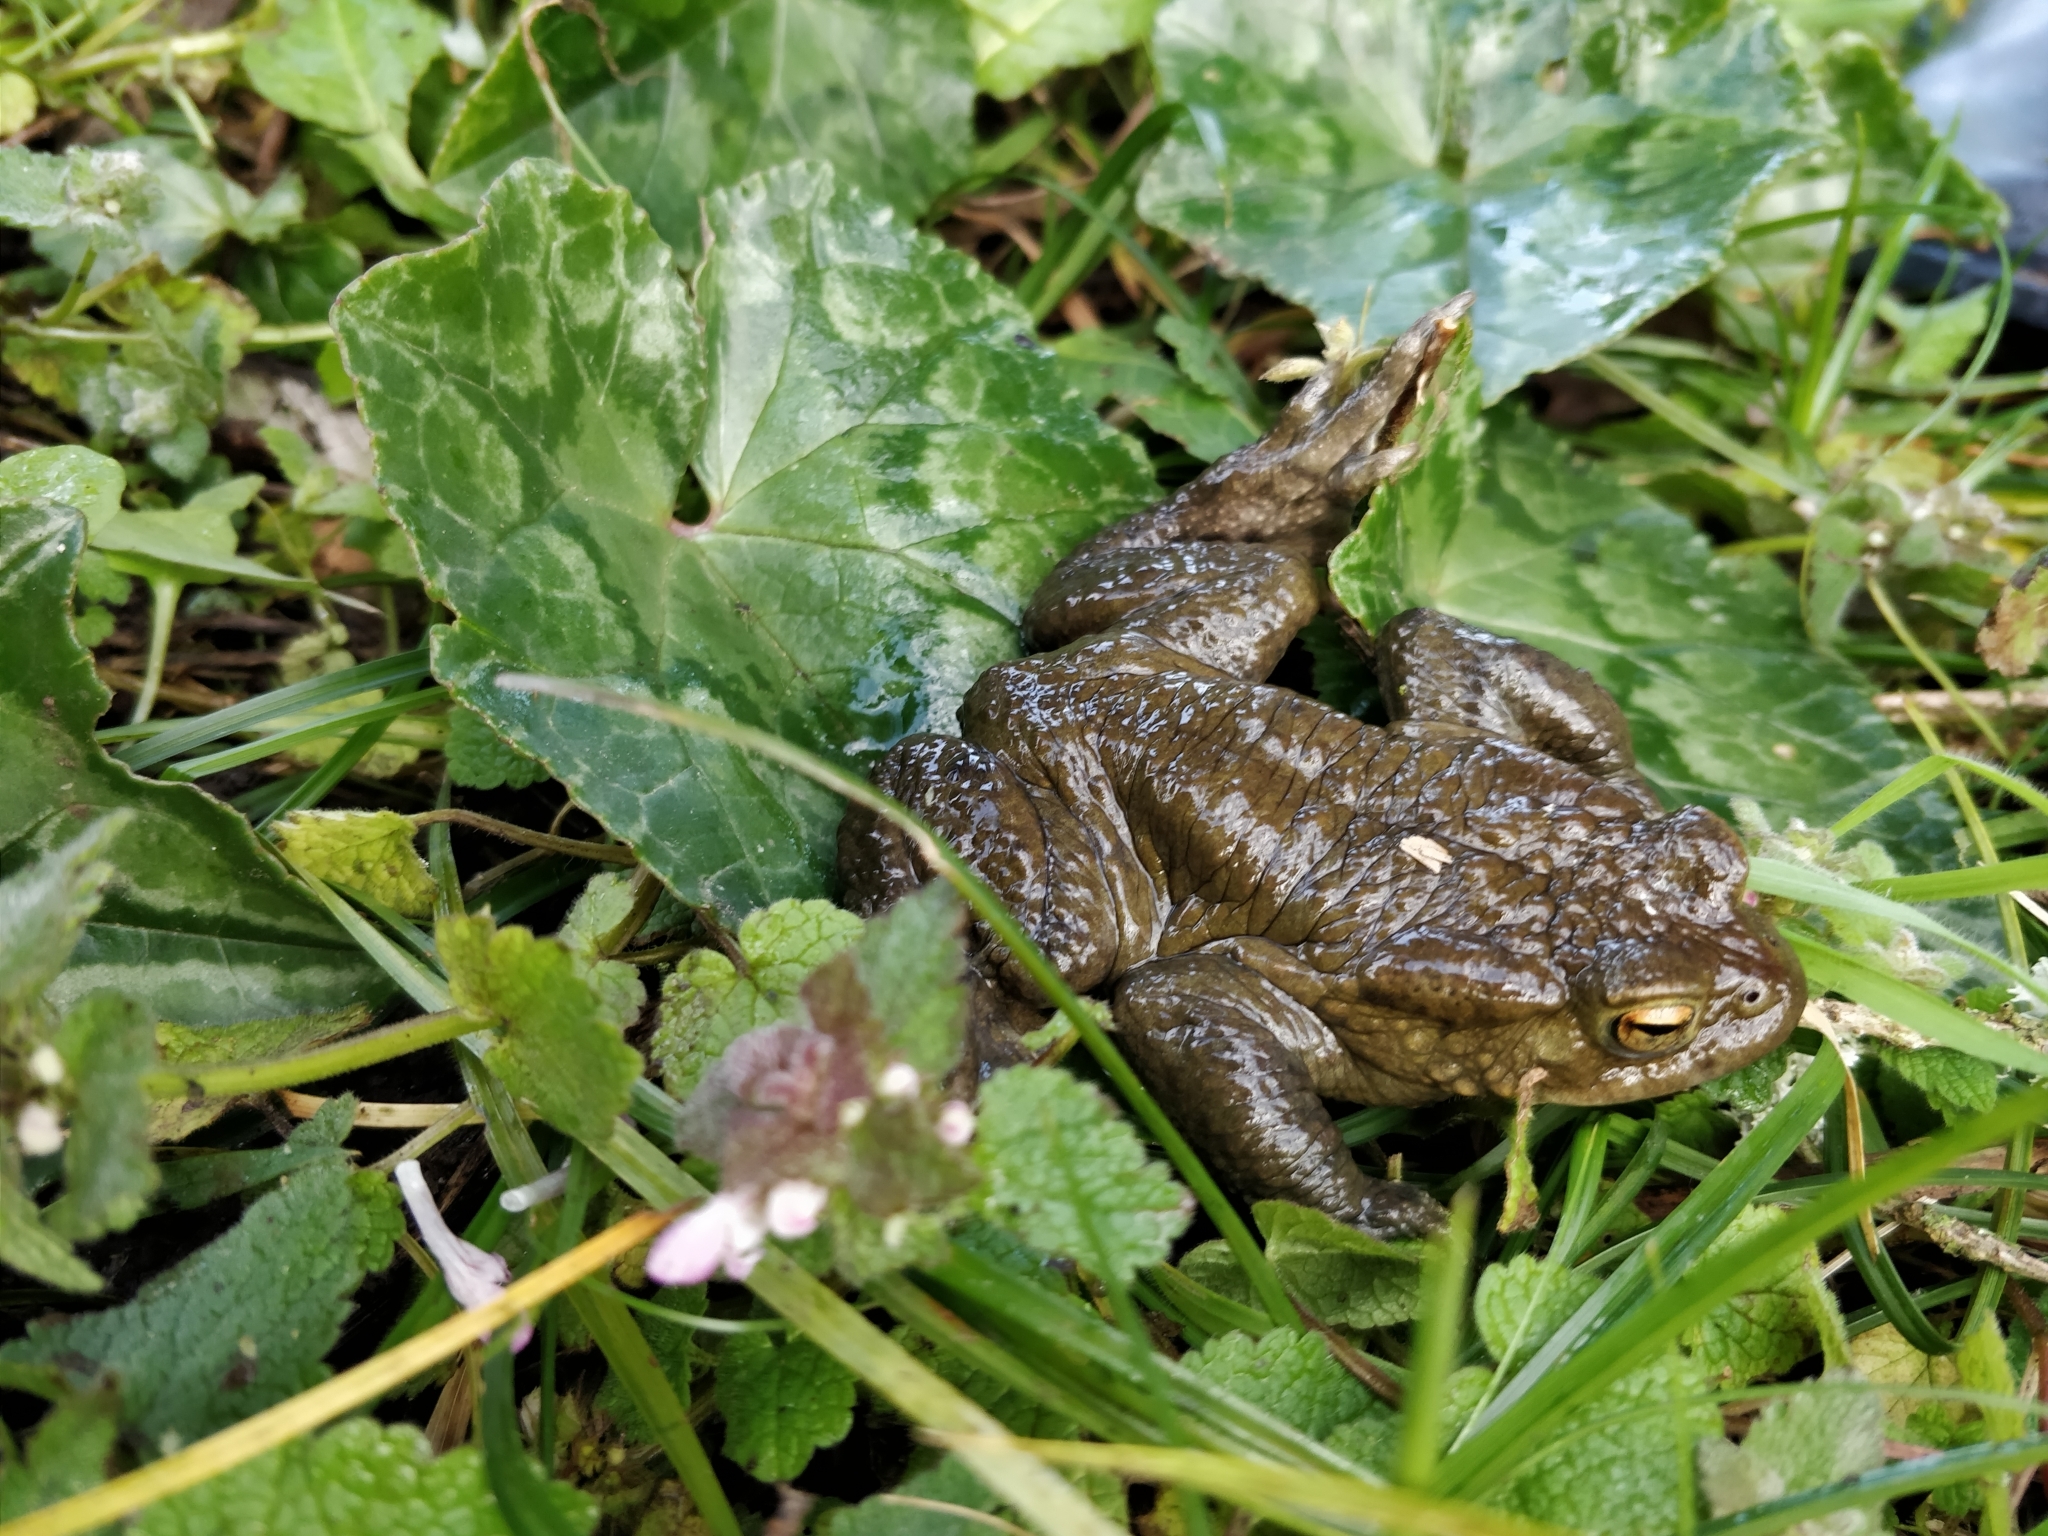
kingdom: Animalia
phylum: Chordata
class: Amphibia
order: Anura
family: Bufonidae
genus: Bufo
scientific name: Bufo bufo
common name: Common toad
